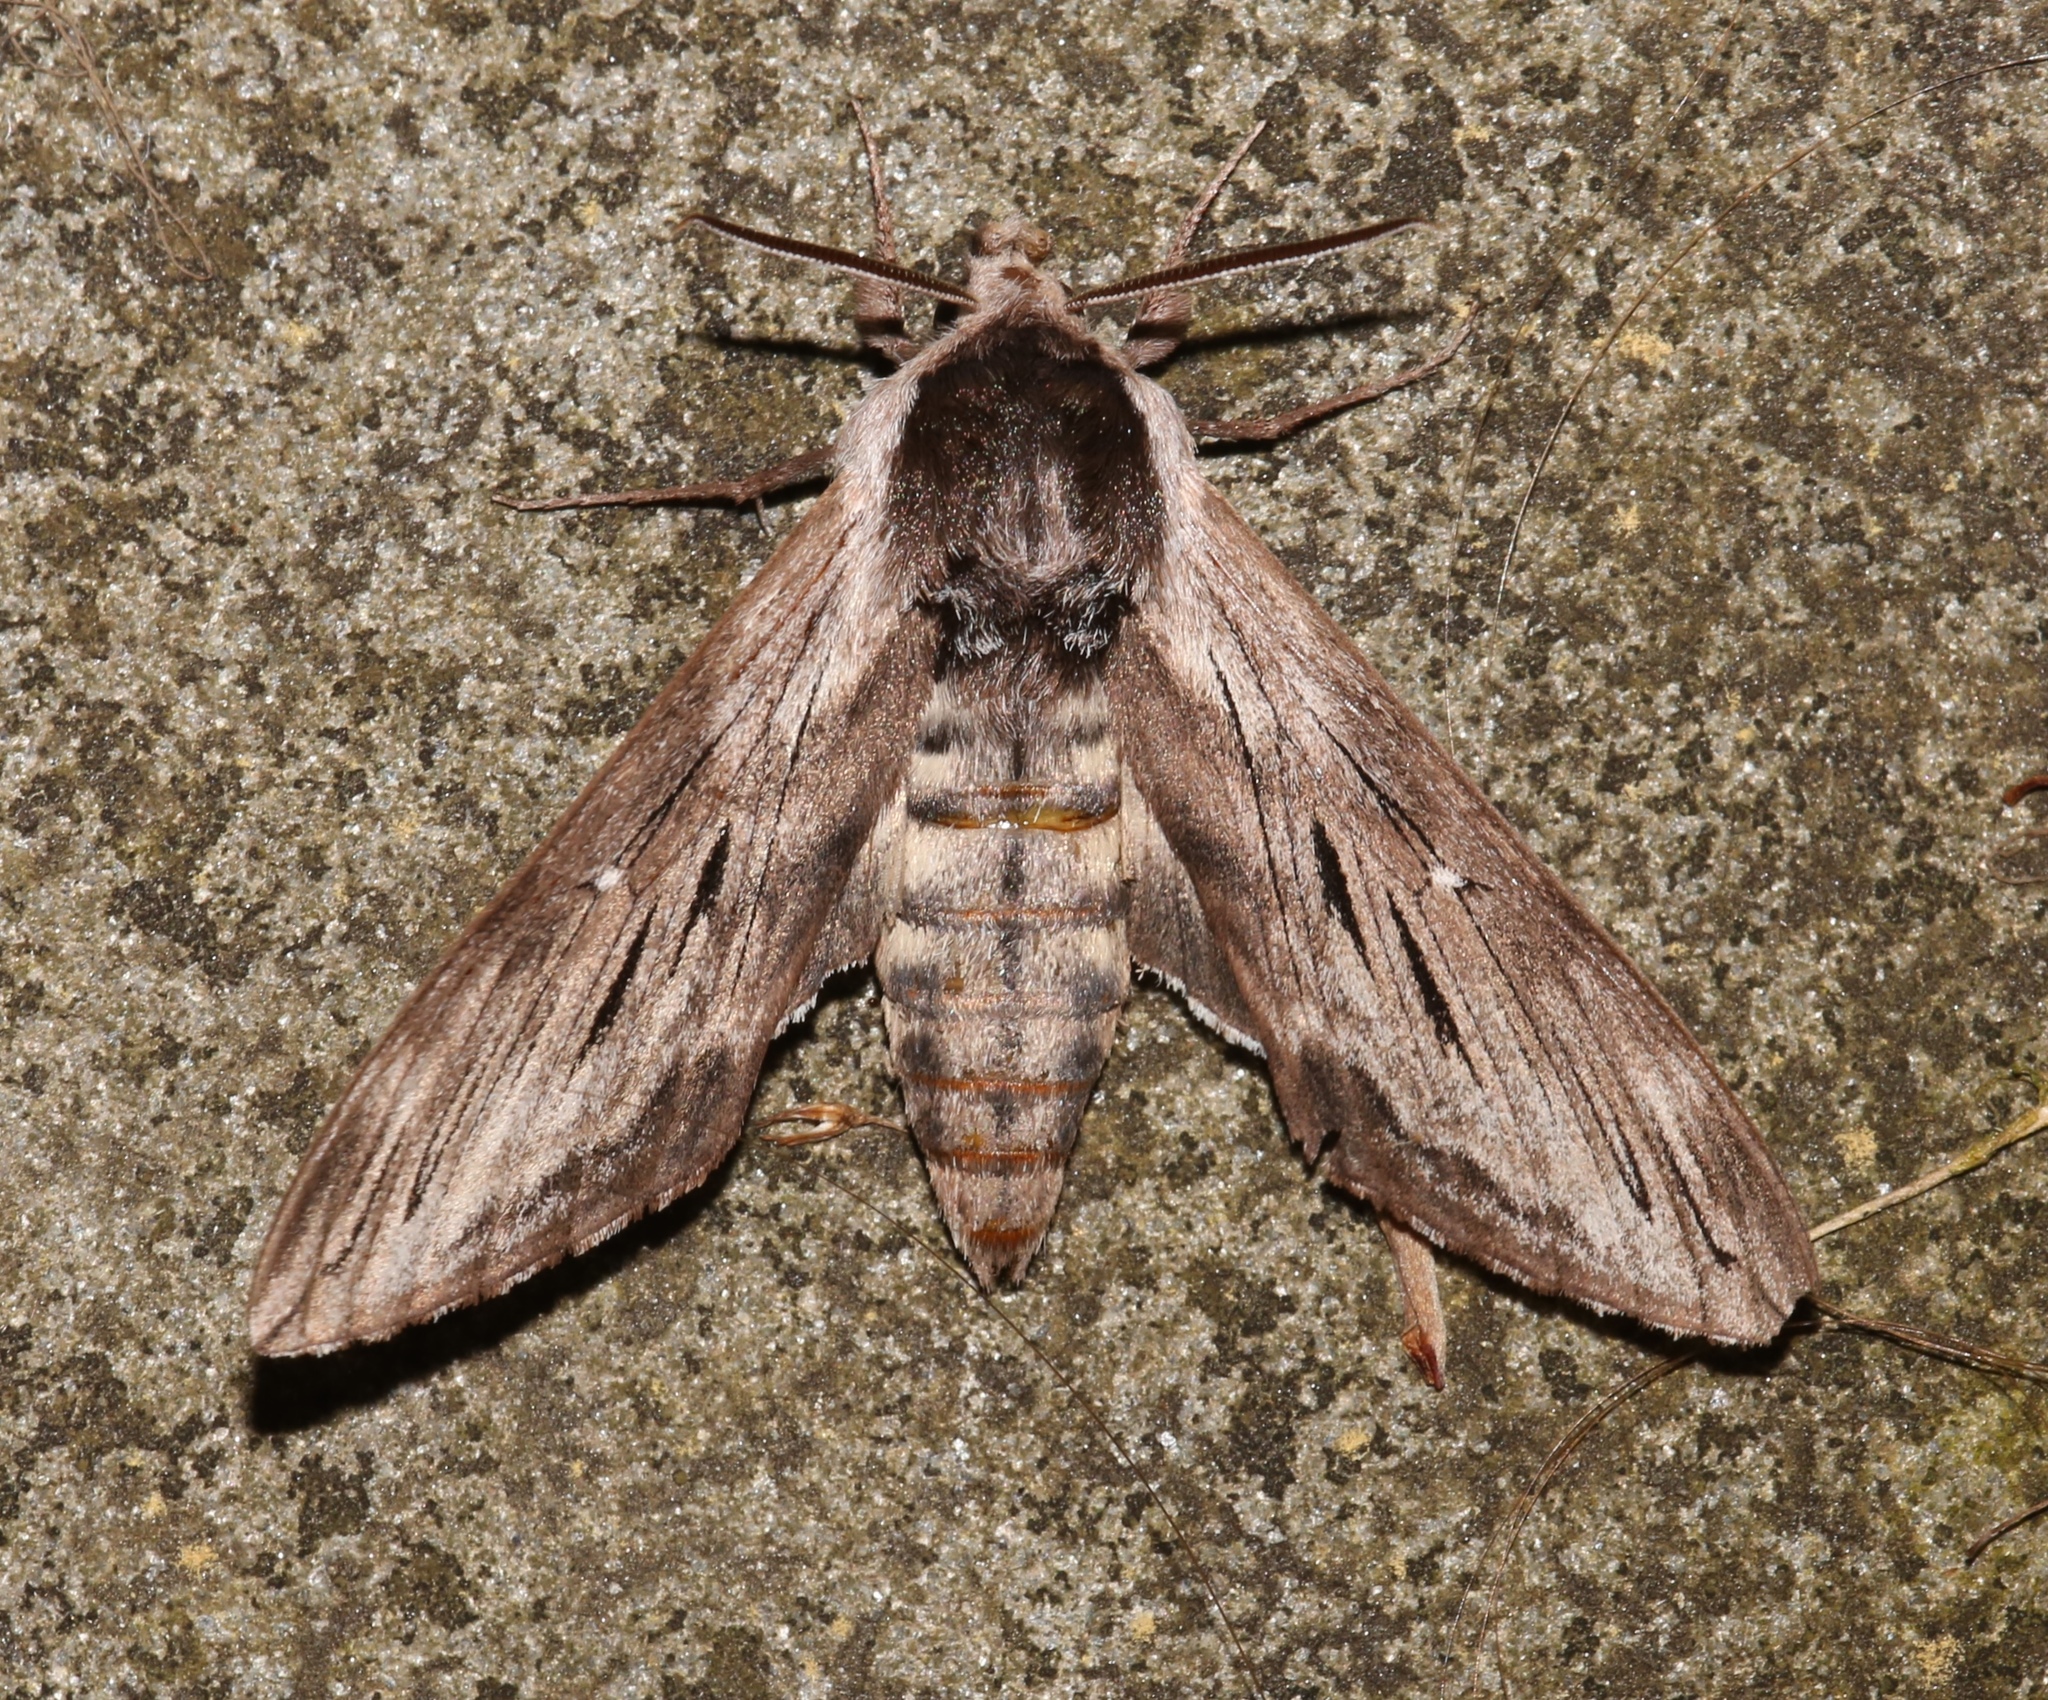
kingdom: Animalia
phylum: Arthropoda
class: Insecta
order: Lepidoptera
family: Sphingidae
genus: Sphinx
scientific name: Sphinx poecila
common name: Northern apple sphinx
